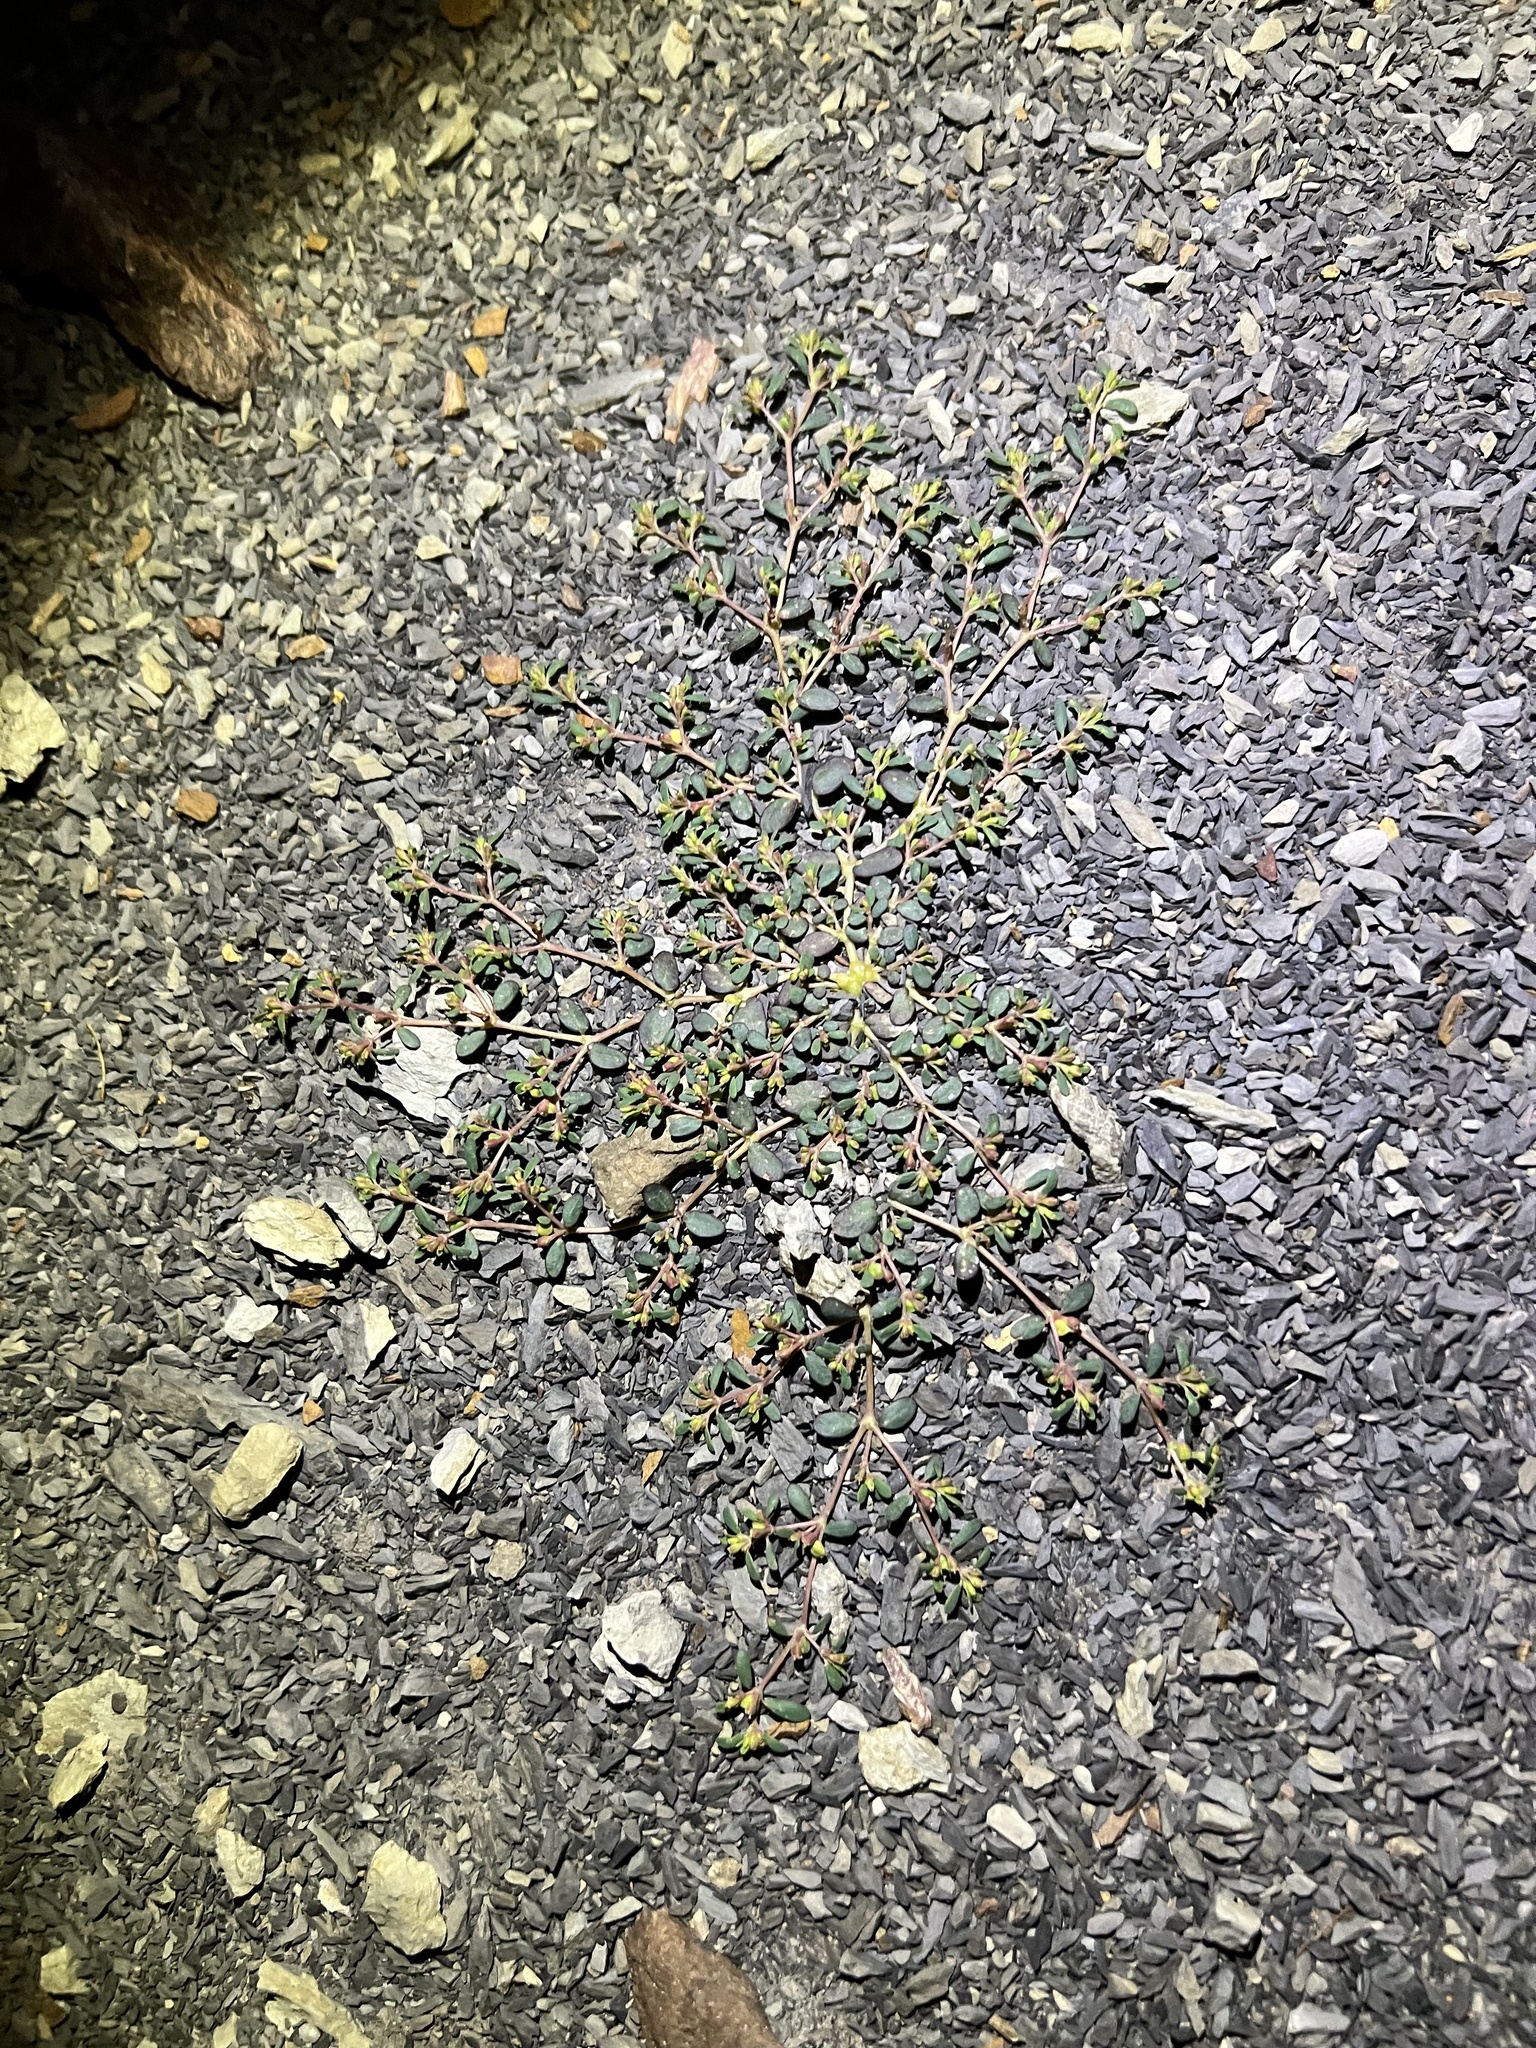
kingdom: Plantae
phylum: Tracheophyta
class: Magnoliopsida
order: Malpighiales
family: Euphorbiaceae
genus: Euphorbia
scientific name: Euphorbia cryptorubra
